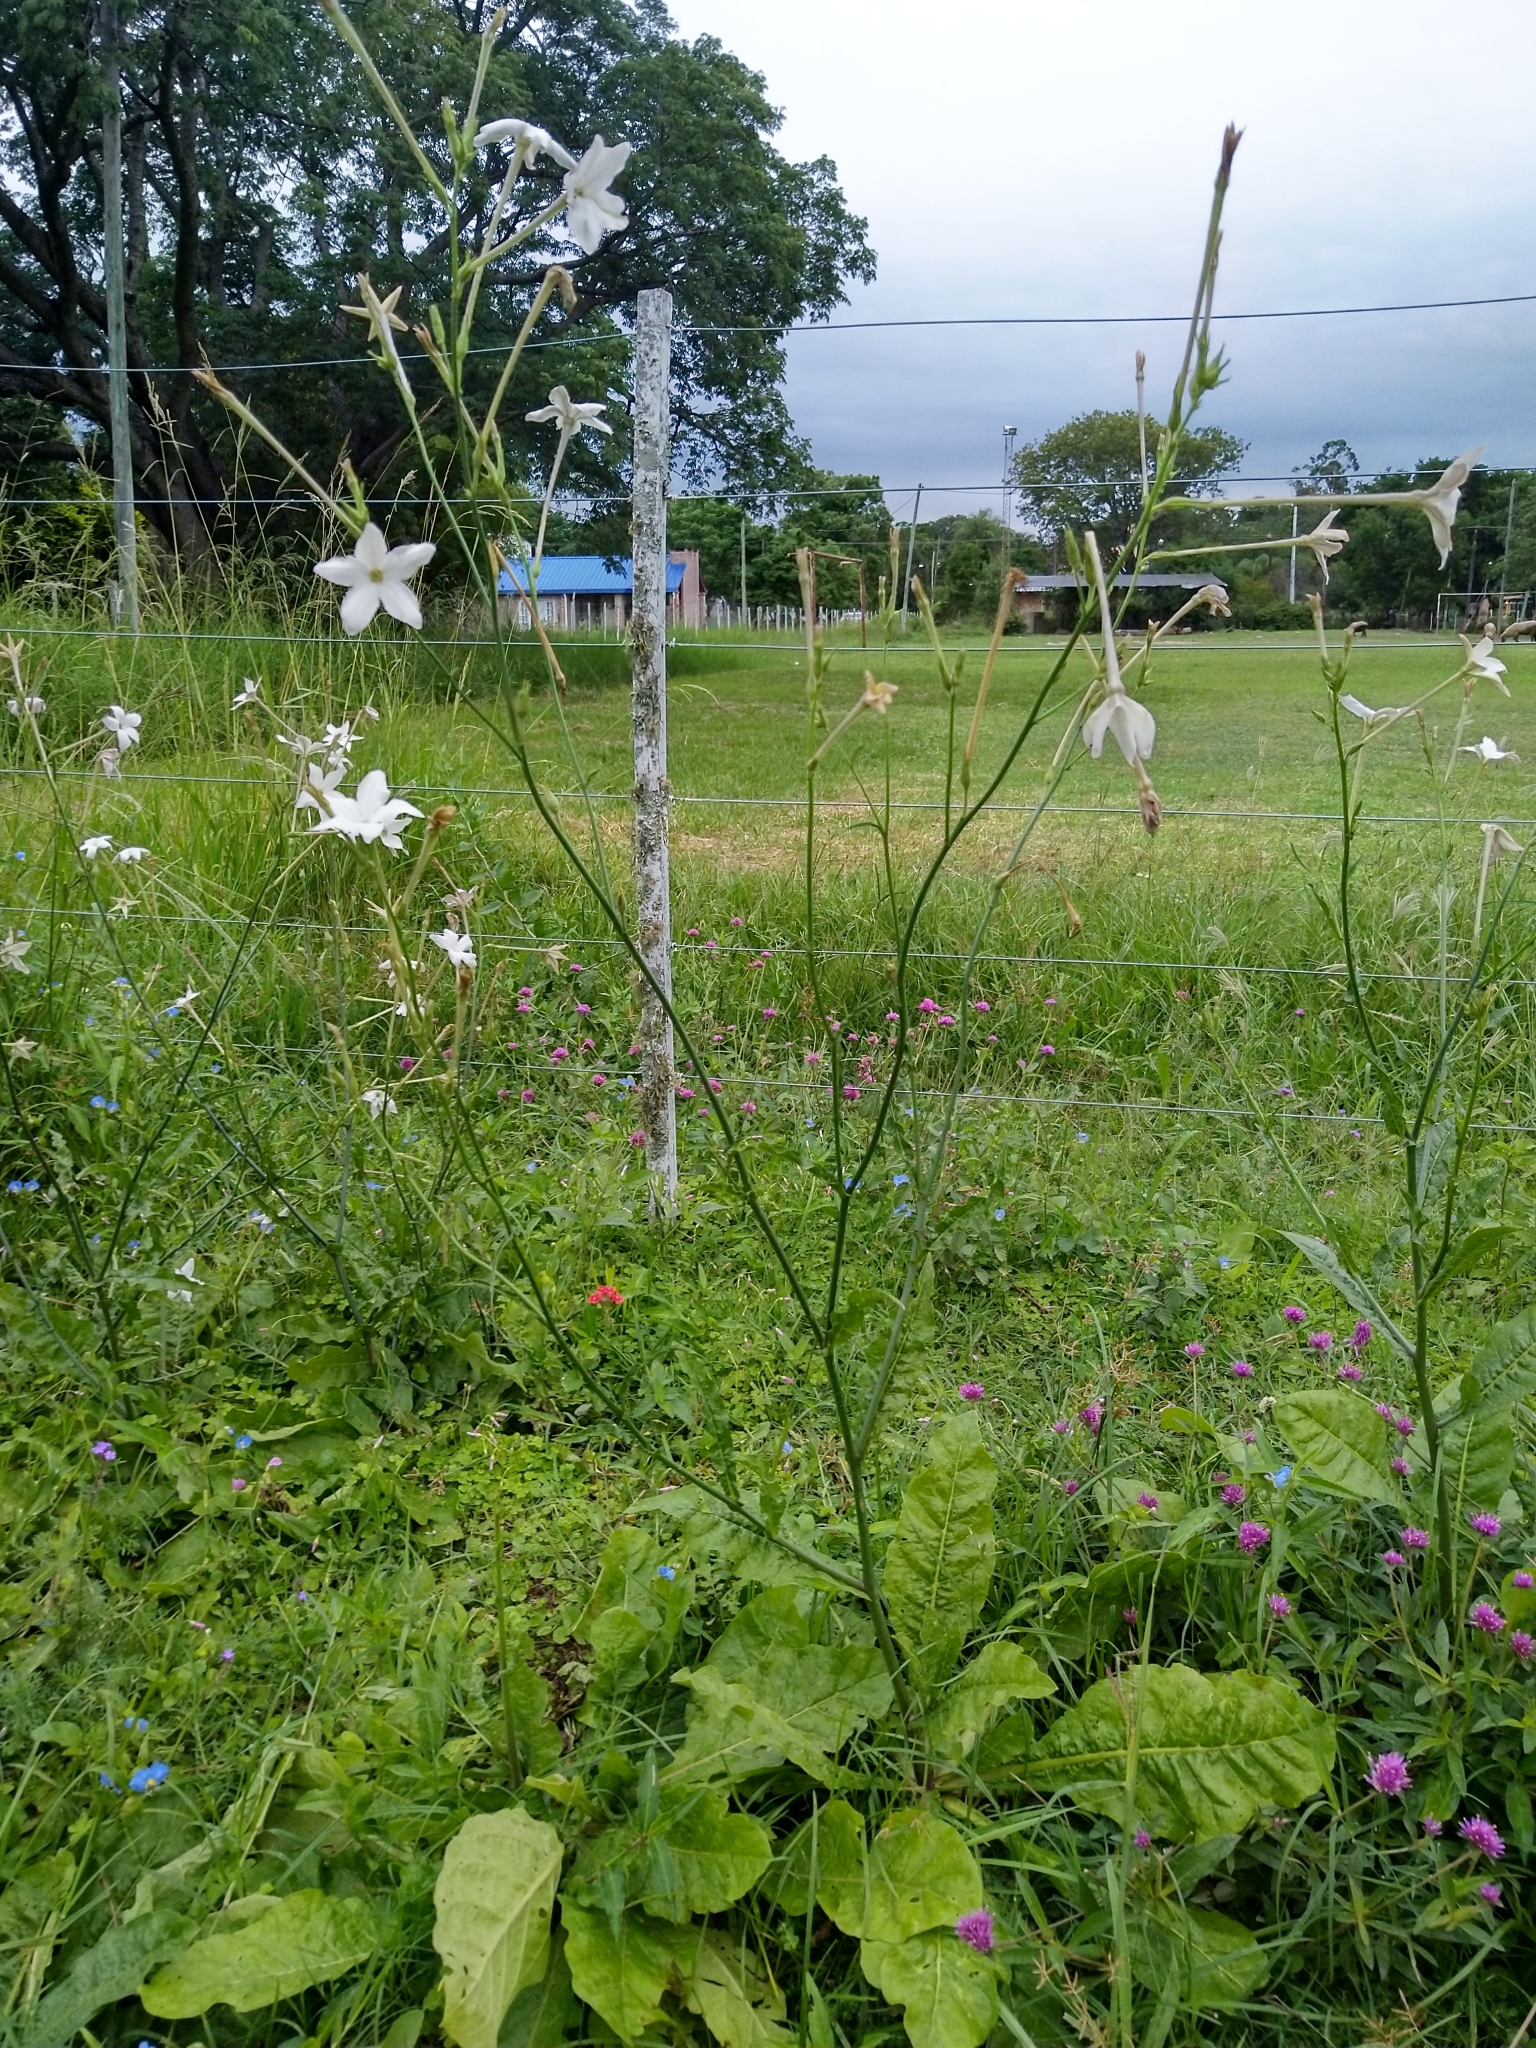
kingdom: Plantae
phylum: Tracheophyta
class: Magnoliopsida
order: Solanales
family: Solanaceae
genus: Nicotiana
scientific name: Nicotiana longiflora
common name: Long-flowered tobacco
